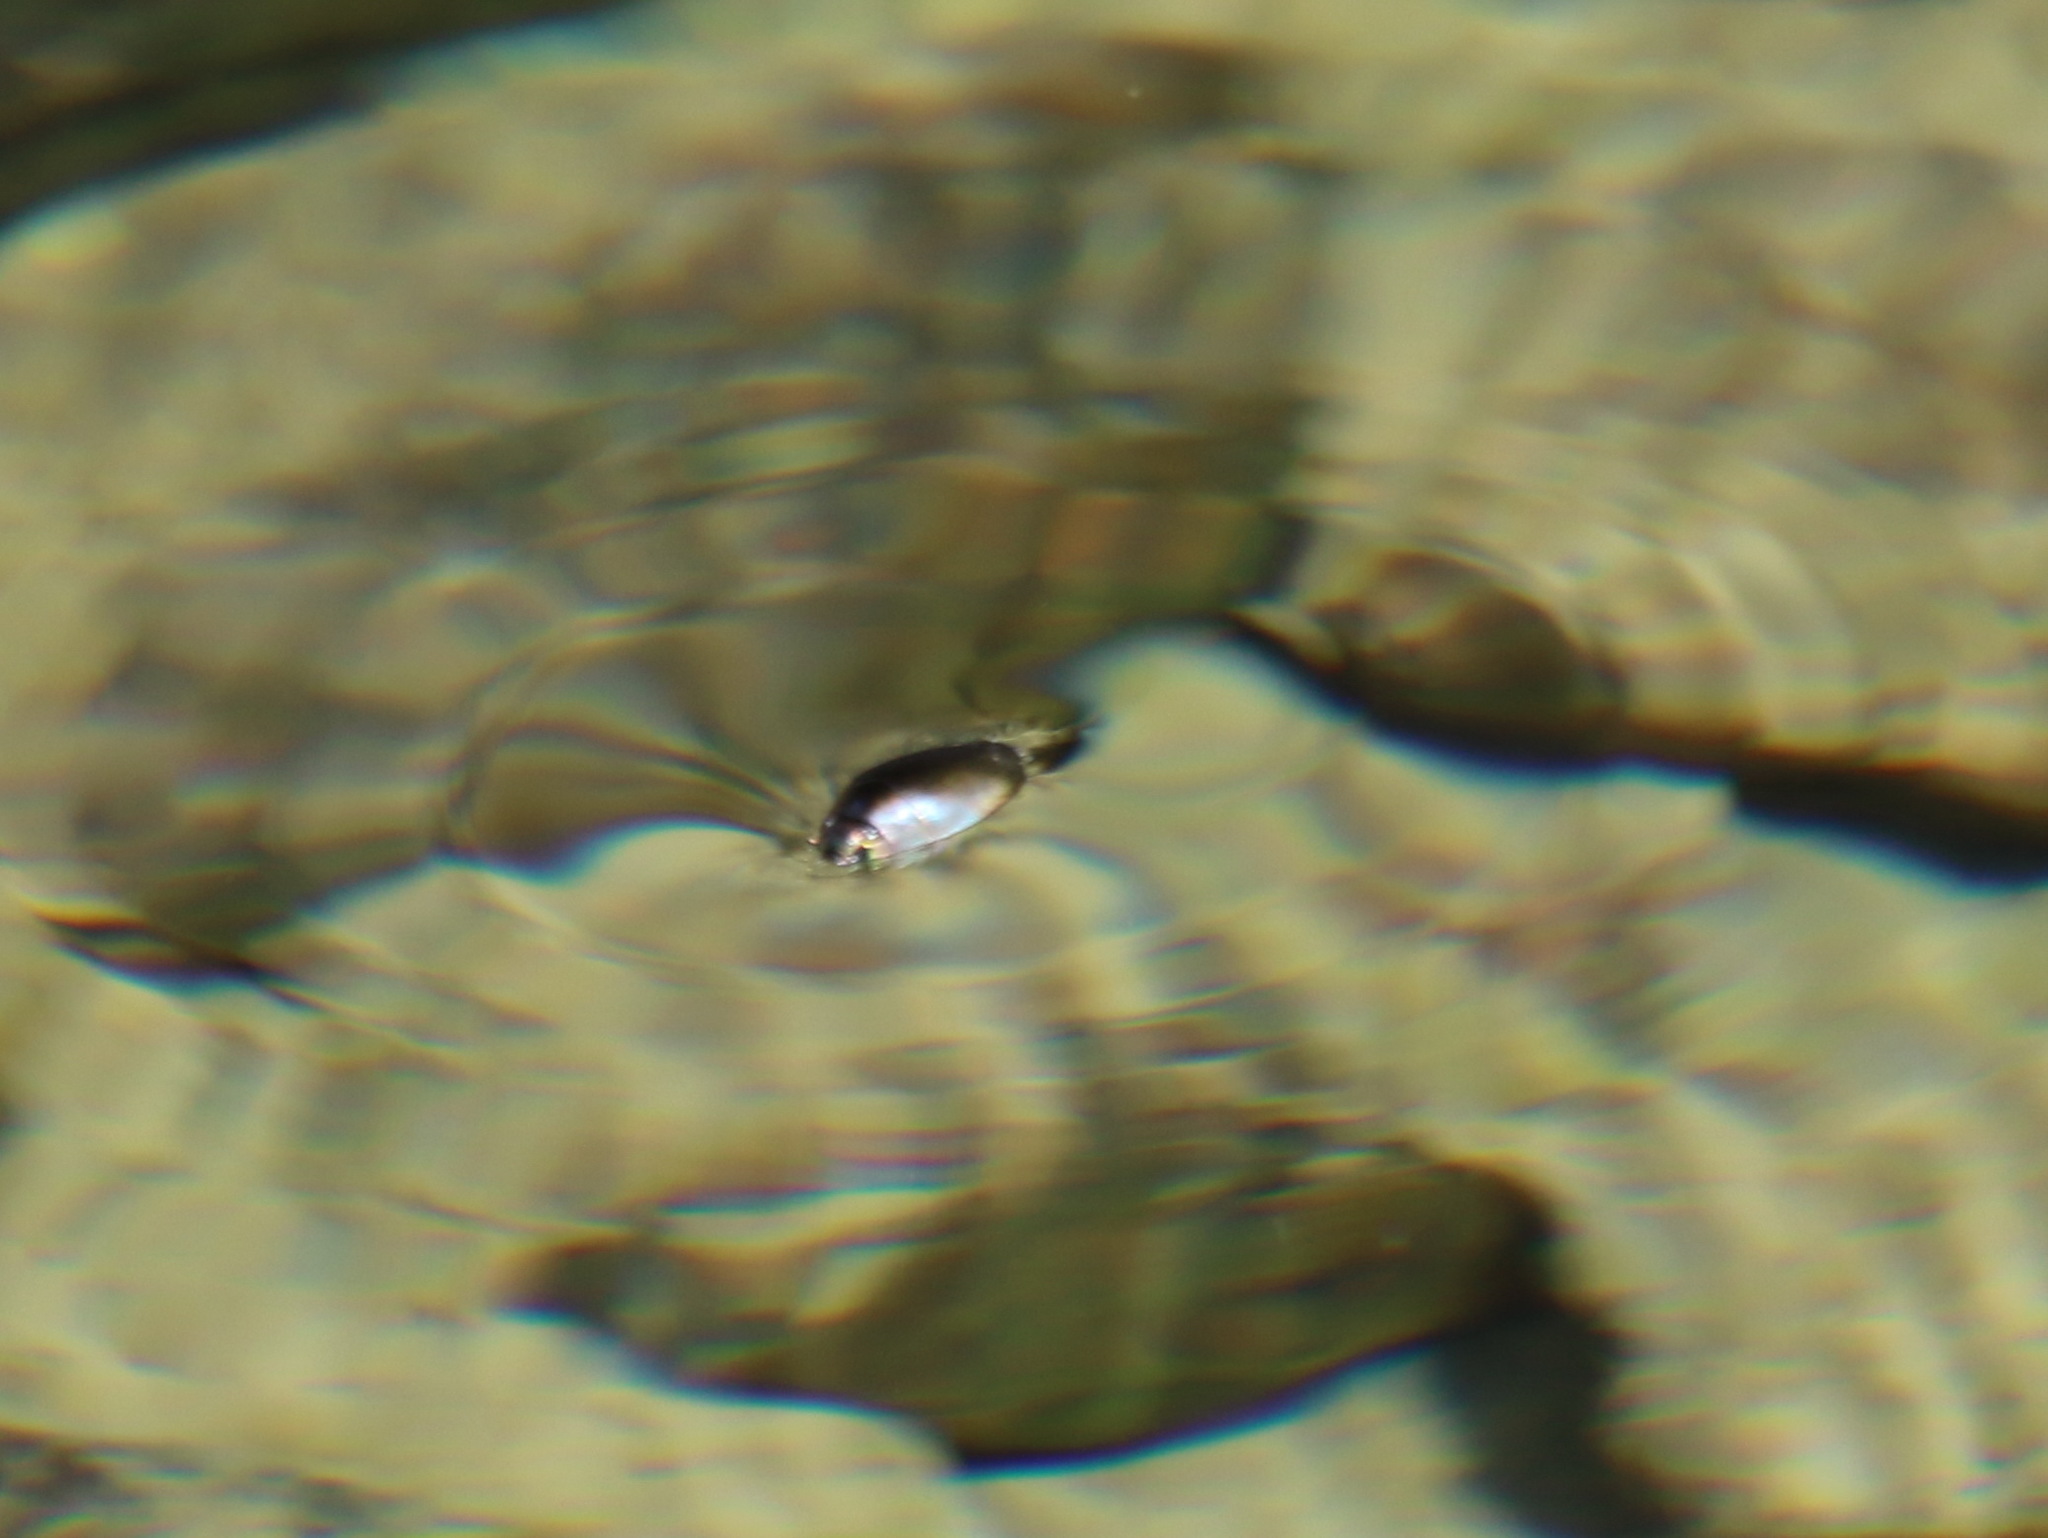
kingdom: Animalia
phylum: Arthropoda
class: Insecta
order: Coleoptera
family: Gyrinidae
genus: Dineutus
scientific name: Dineutus aereus
